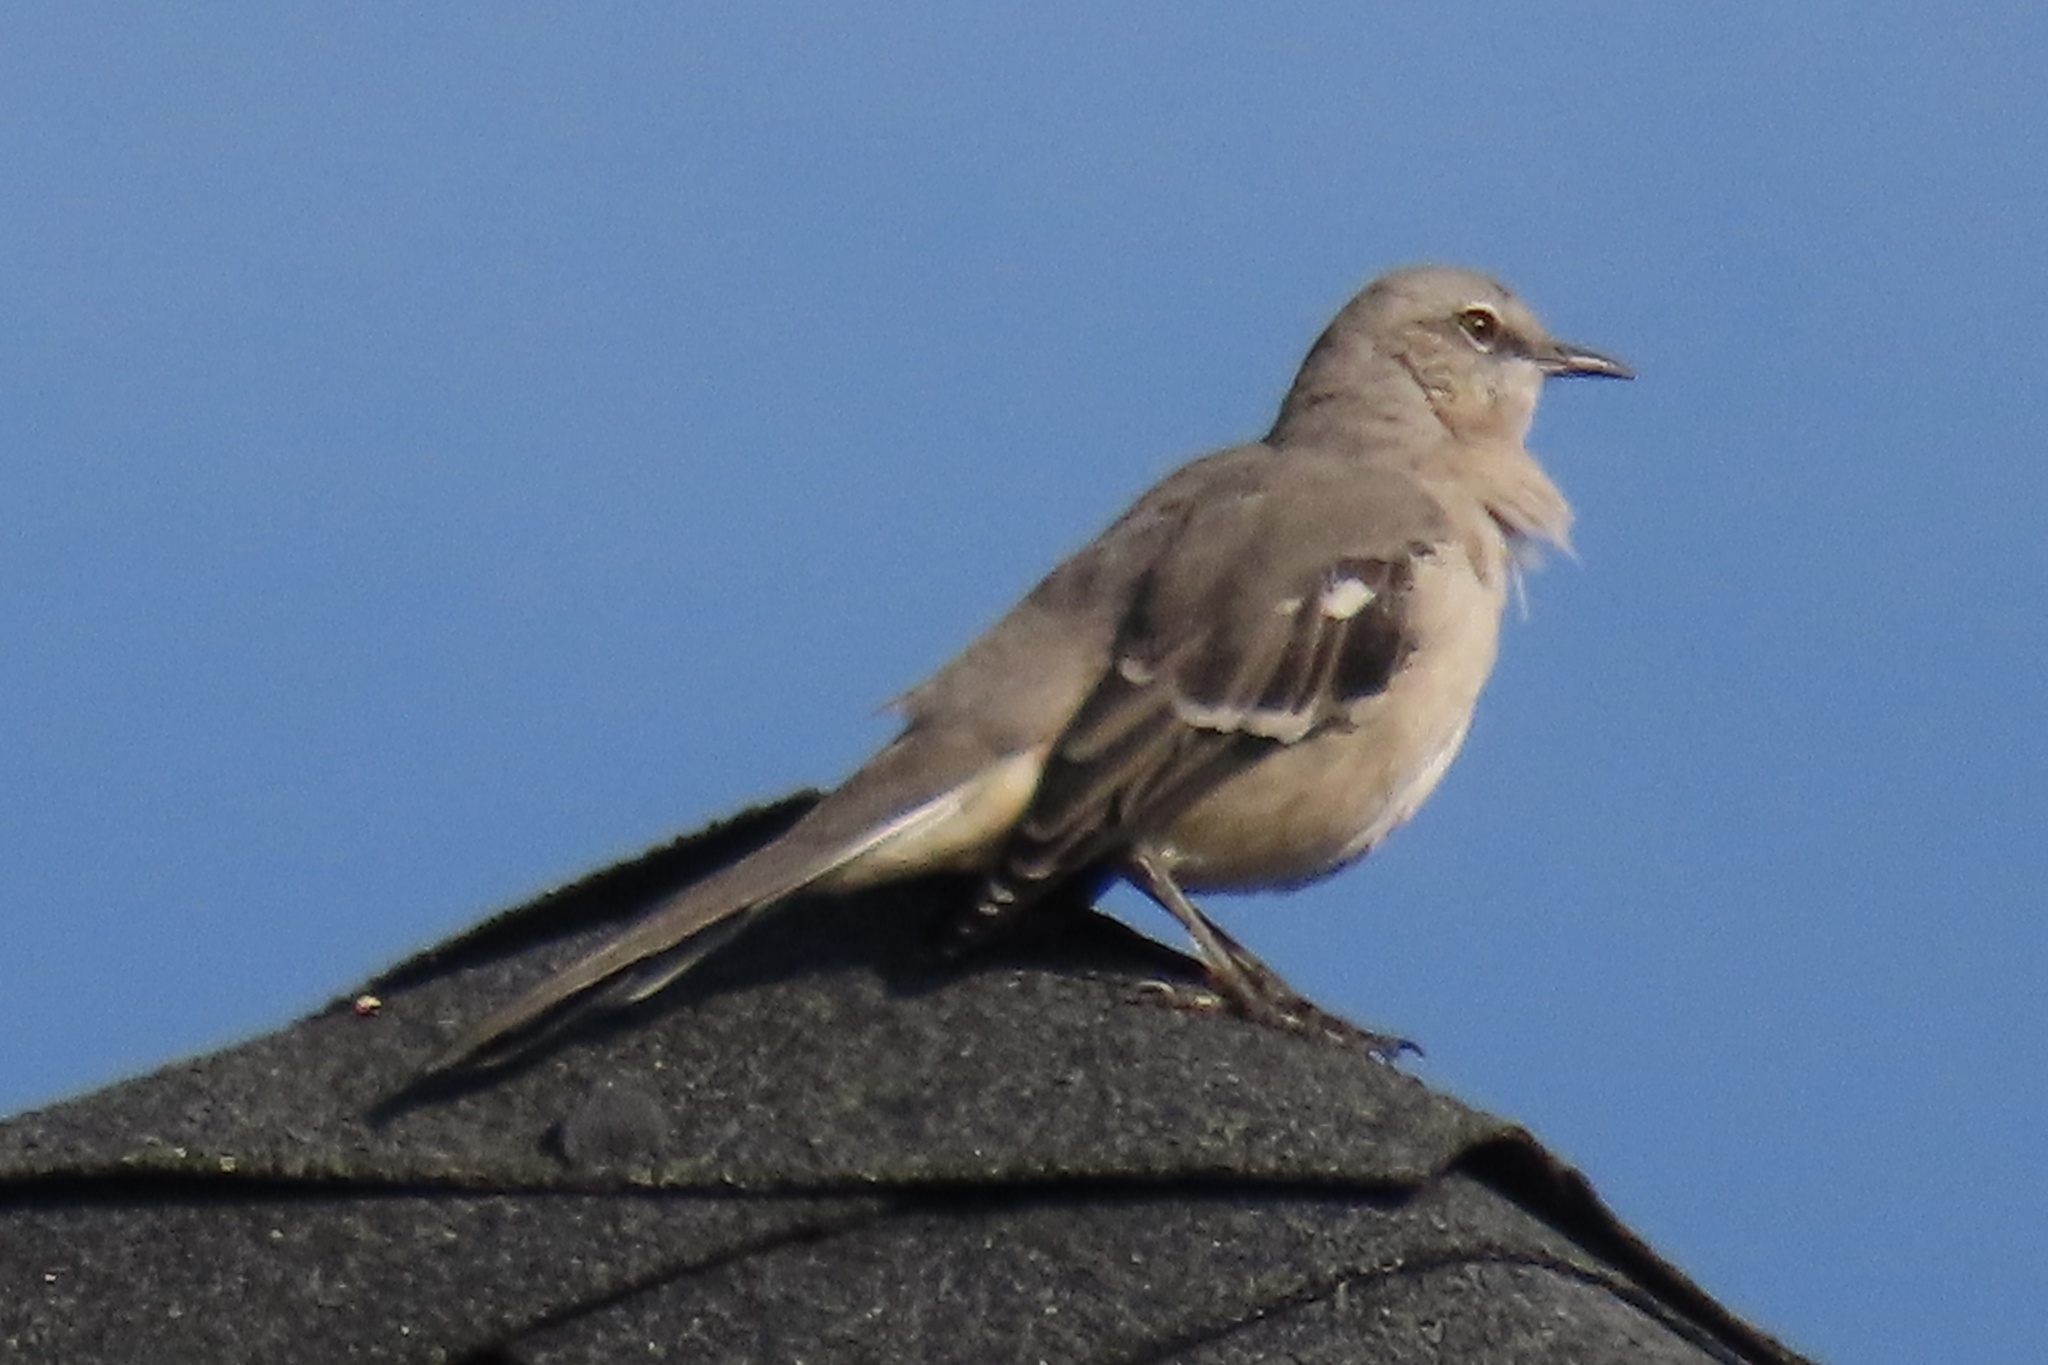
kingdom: Animalia
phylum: Chordata
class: Aves
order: Passeriformes
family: Mimidae
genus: Mimus
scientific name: Mimus polyglottos
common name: Northern mockingbird
